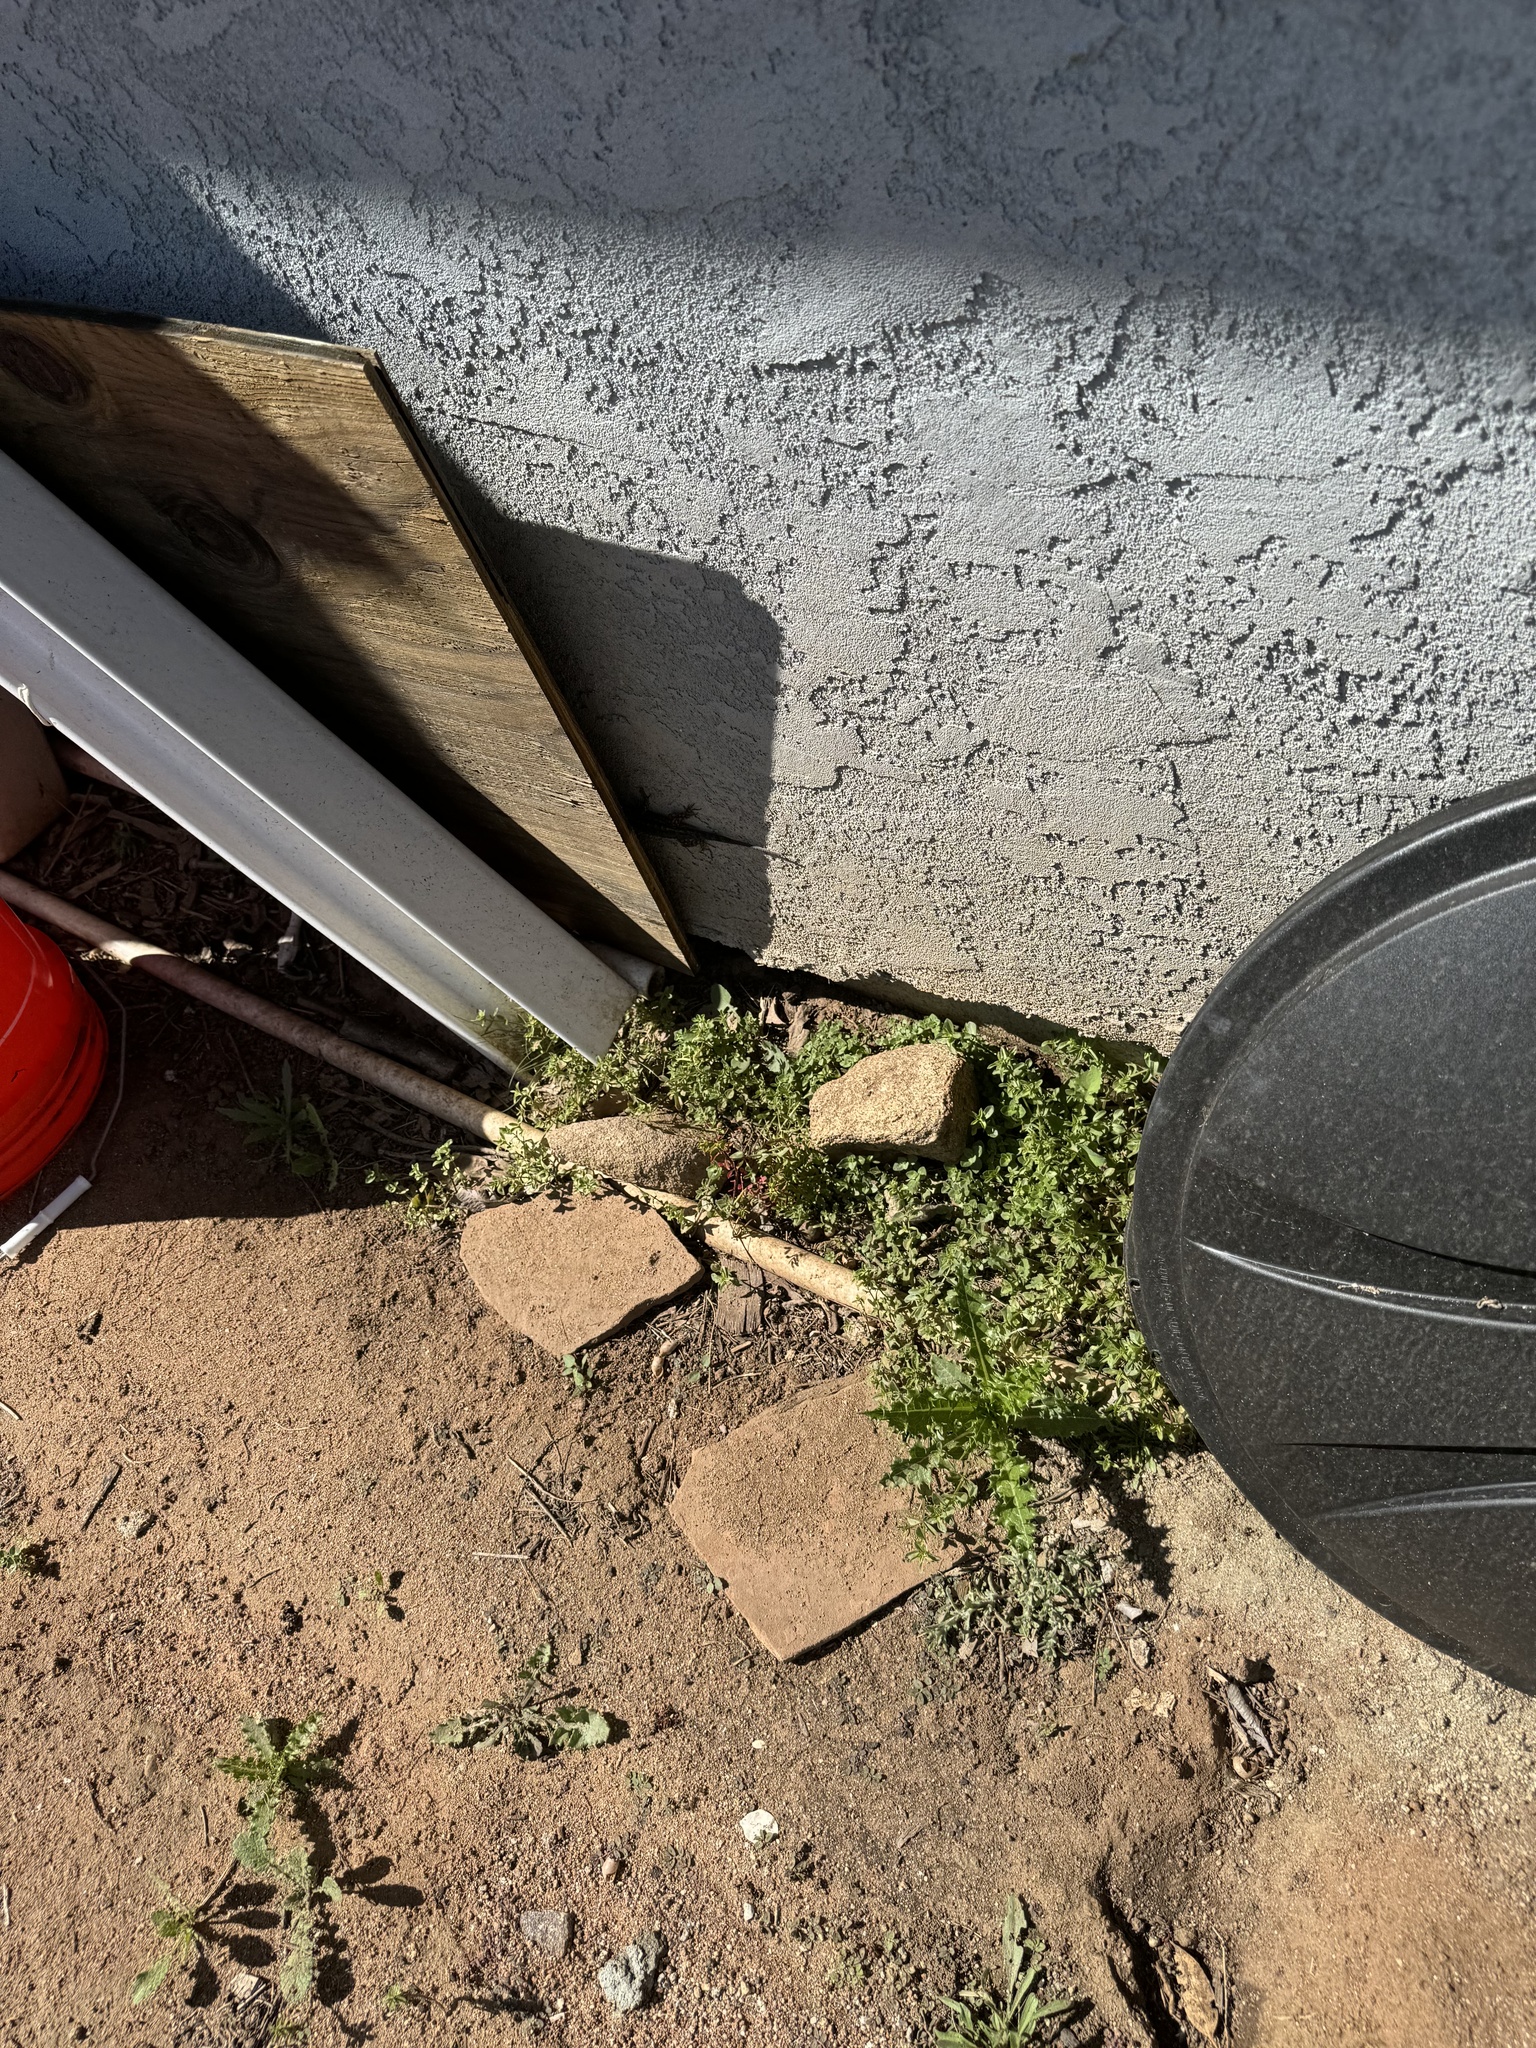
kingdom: Animalia
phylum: Chordata
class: Squamata
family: Phrynosomatidae
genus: Sceloporus
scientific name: Sceloporus occidentalis
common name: Western fence lizard
